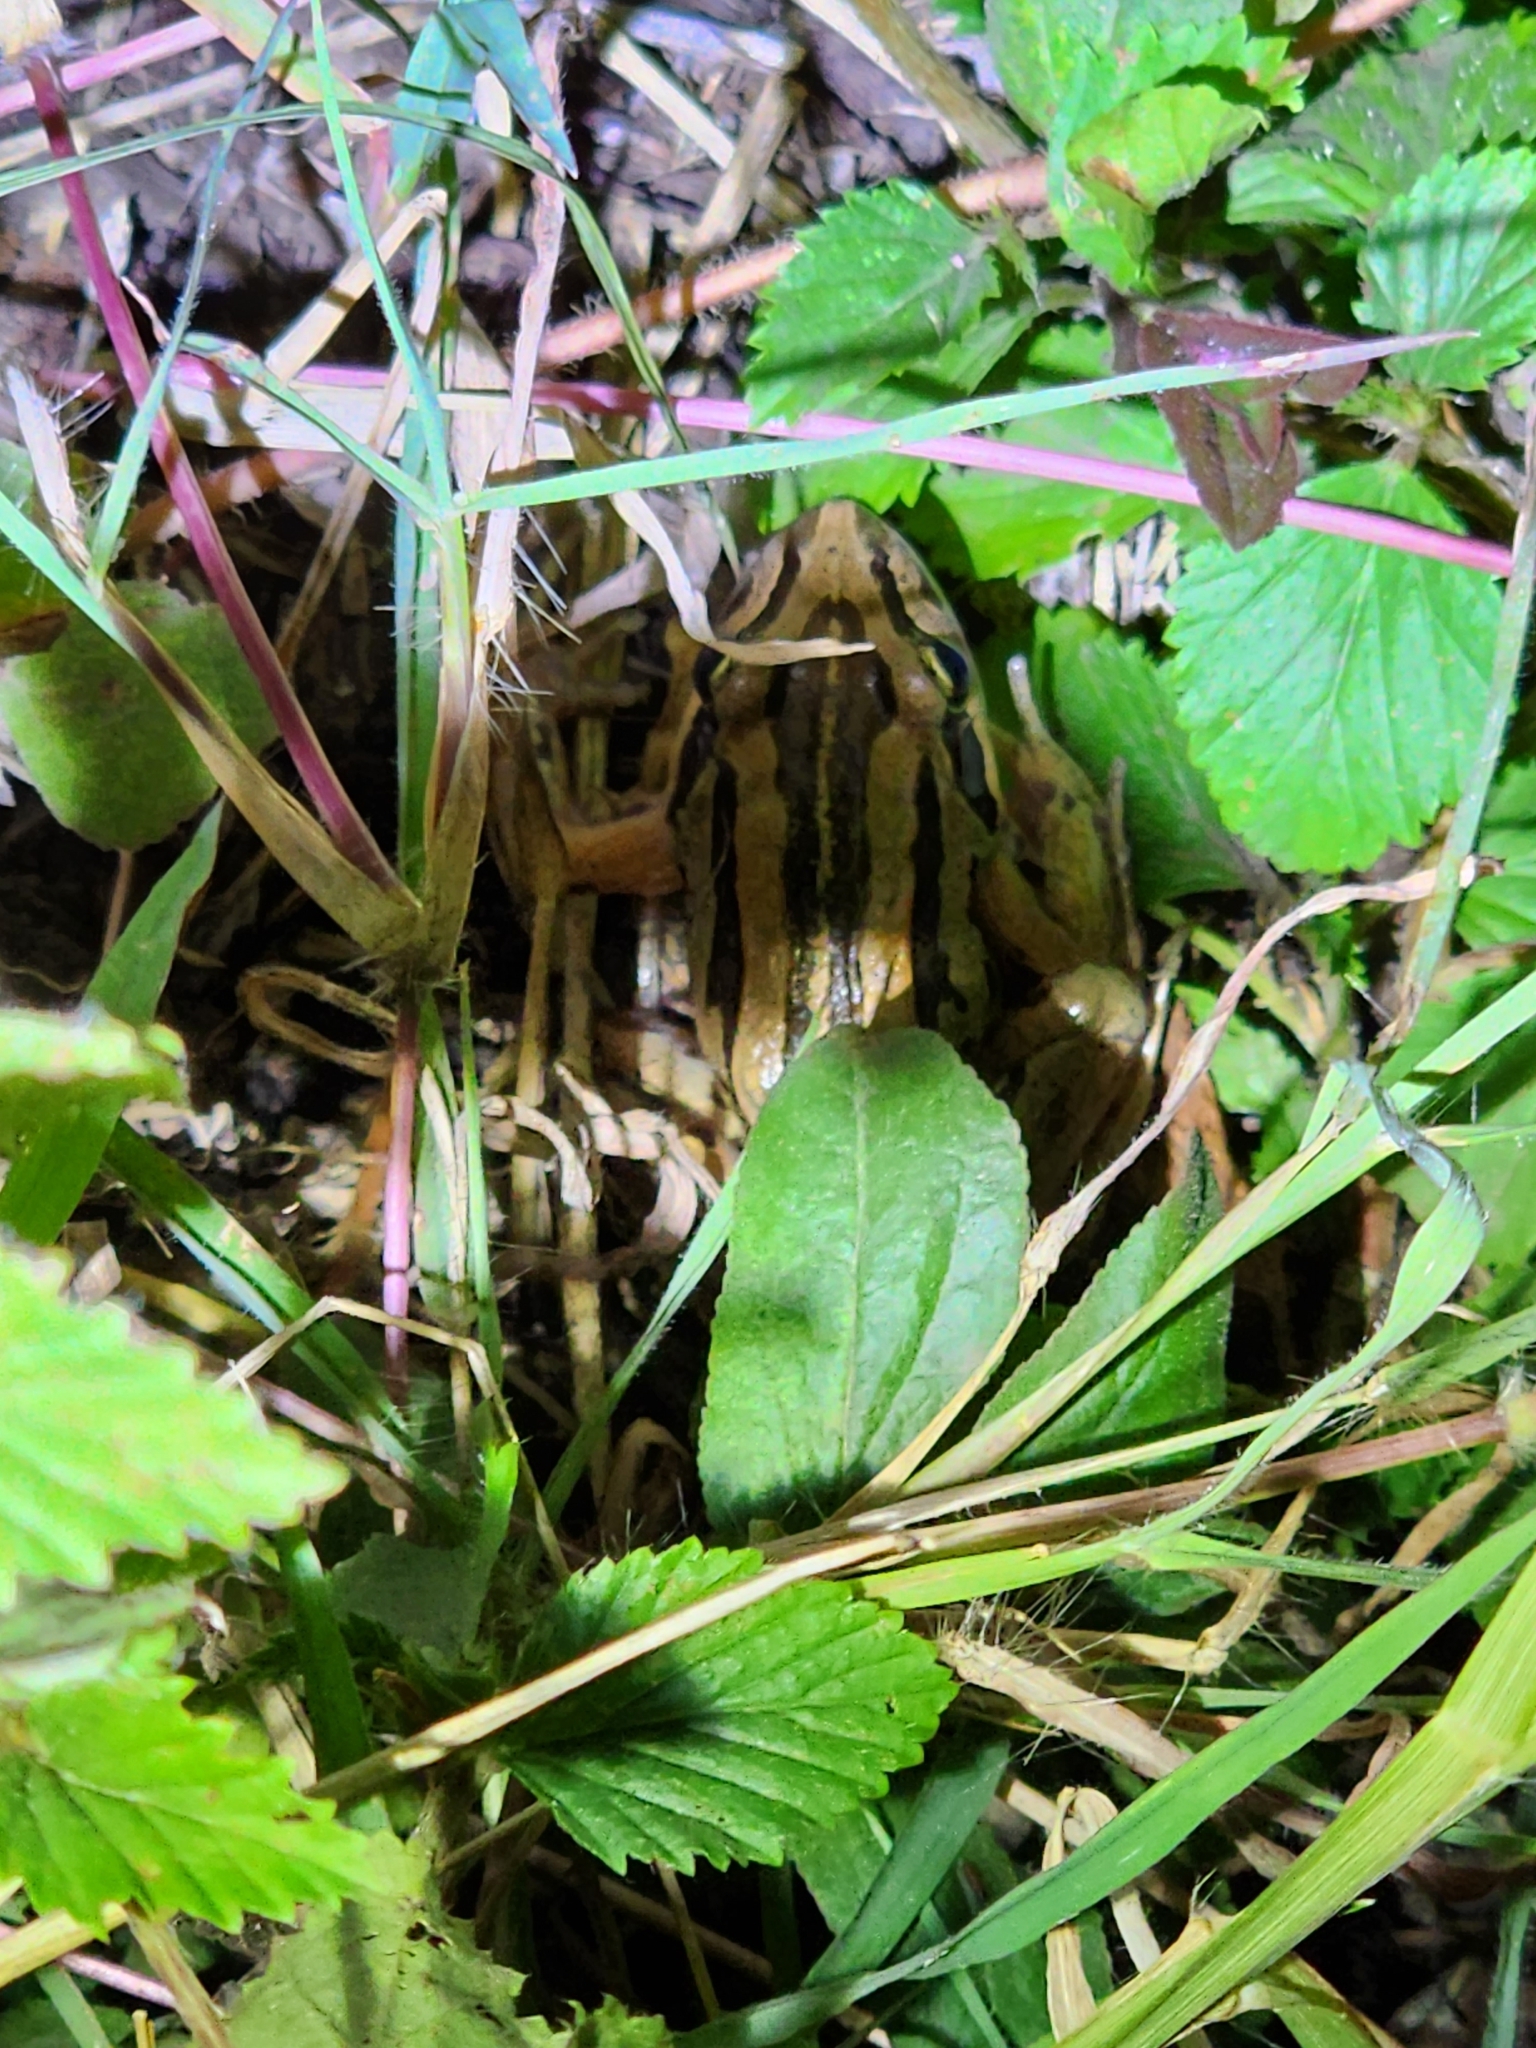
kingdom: Animalia
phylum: Chordata
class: Amphibia
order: Anura
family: Limnodynastidae
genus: Limnodynastes
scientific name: Limnodynastes peronii
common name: Brown frog
